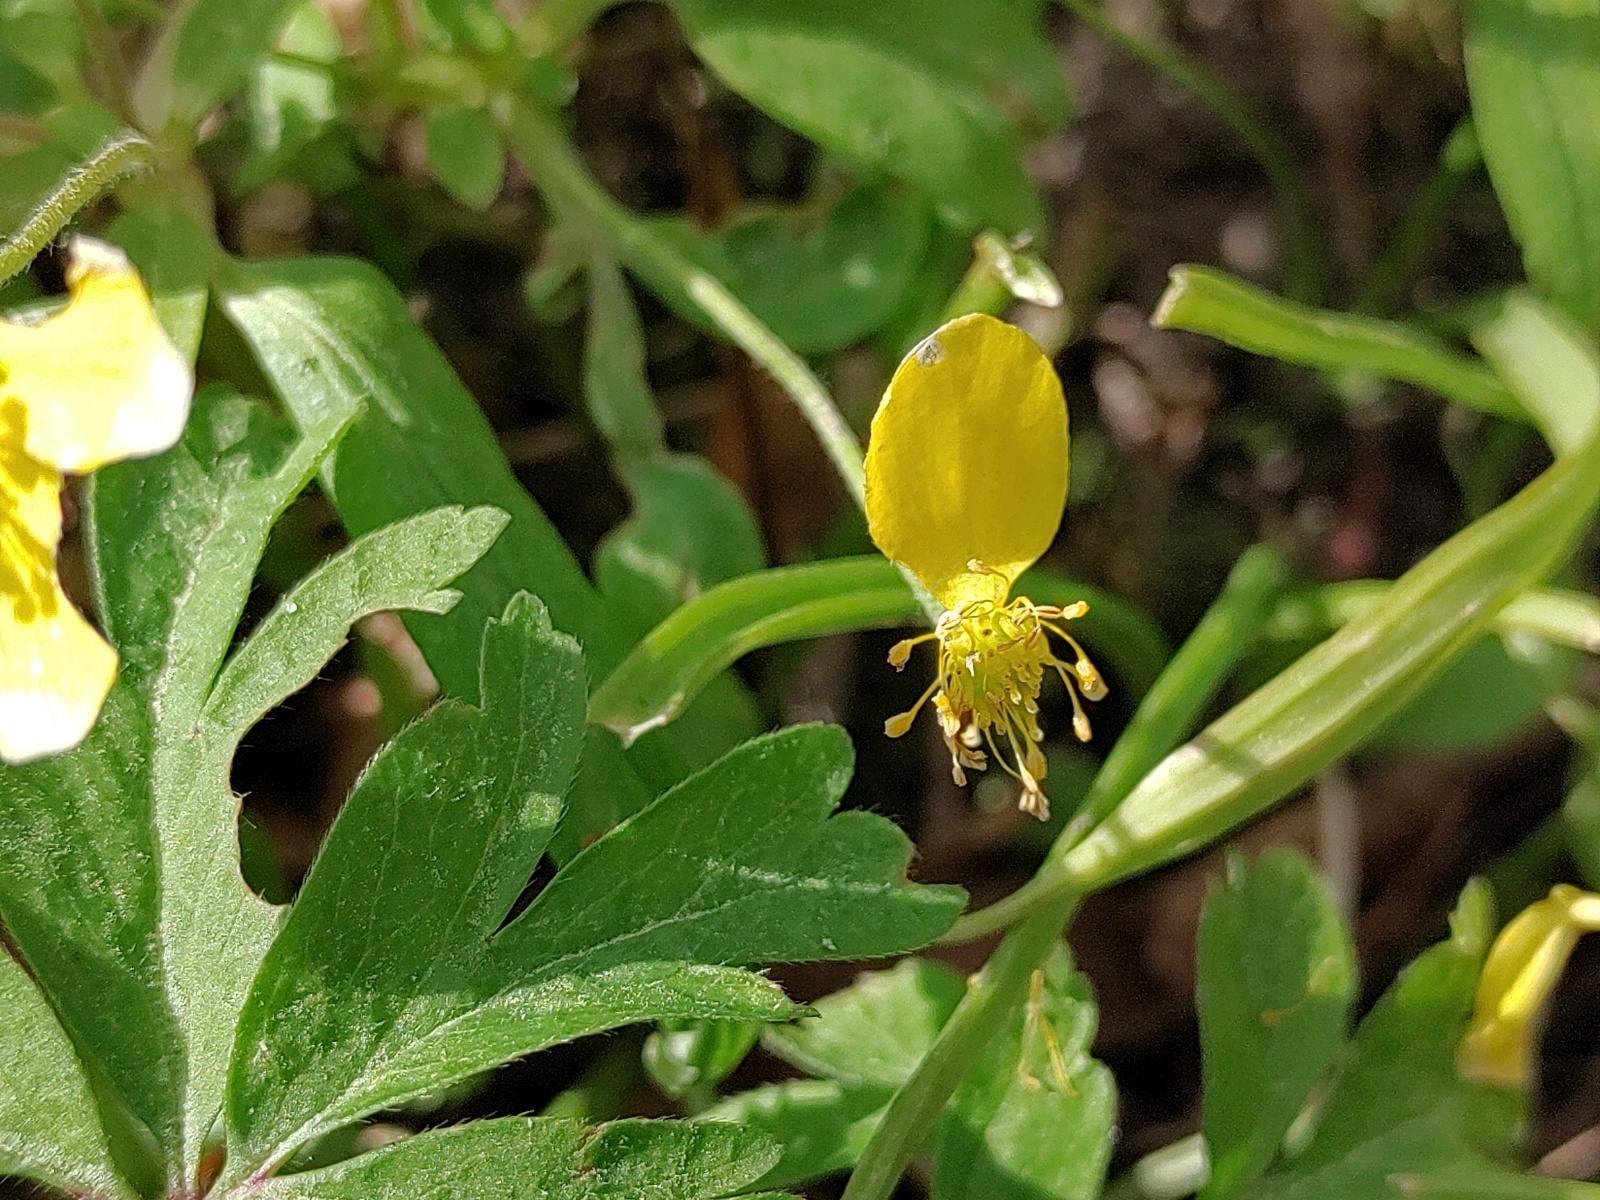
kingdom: Plantae
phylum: Tracheophyta
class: Magnoliopsida
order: Ranunculales
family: Ranunculaceae
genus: Anemone
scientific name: Anemone ranunculoides
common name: Yellow anemone
